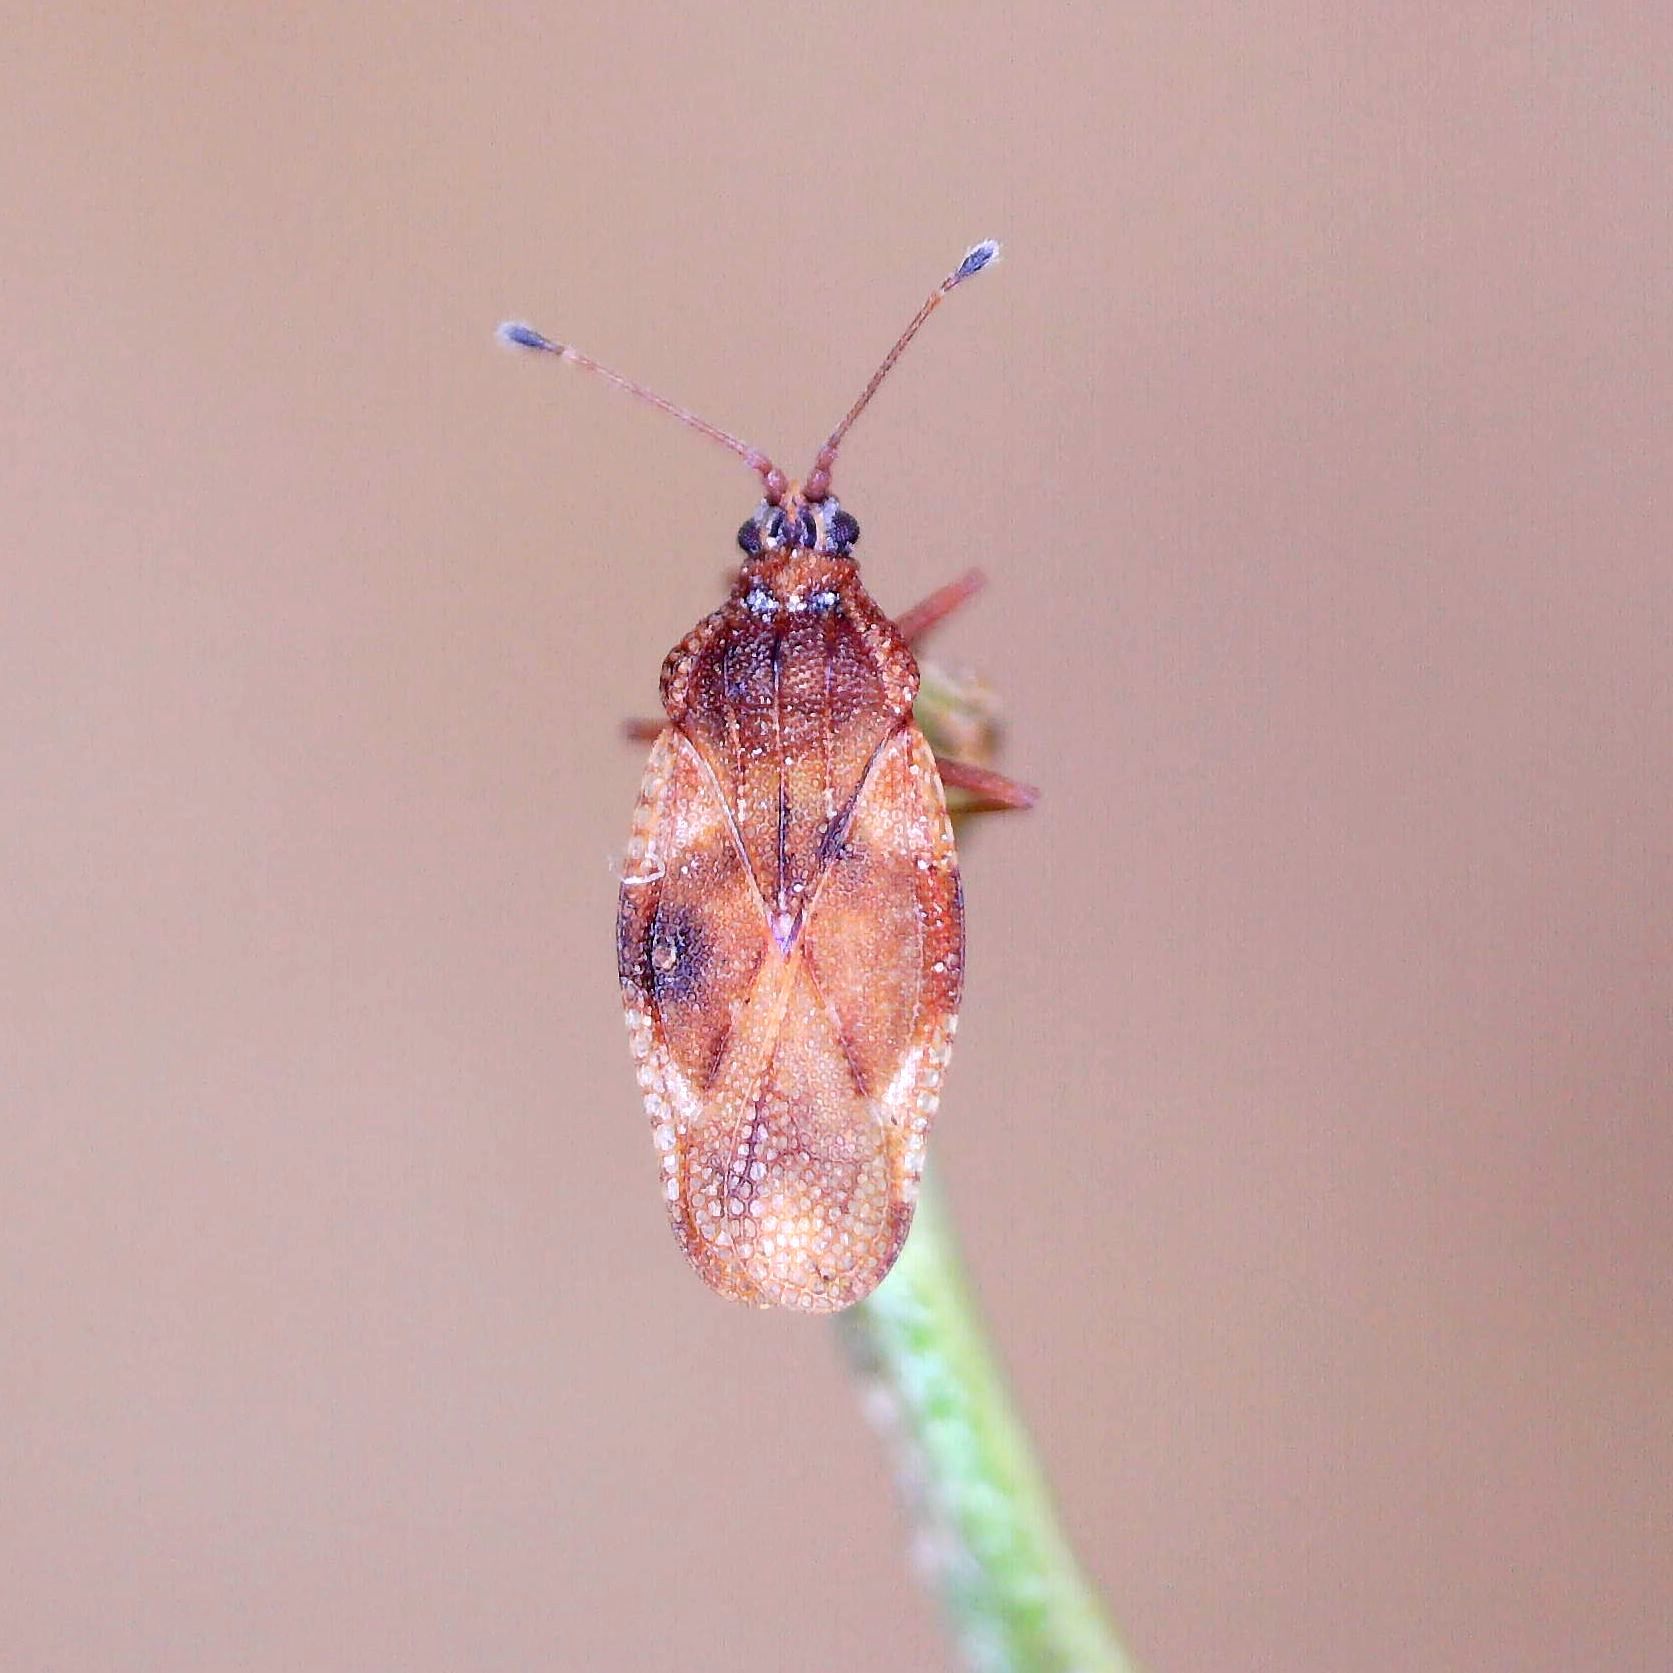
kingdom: Animalia
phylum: Arthropoda
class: Insecta
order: Hemiptera
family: Tingidae
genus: Physatocheila
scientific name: Physatocheila dumetorum
